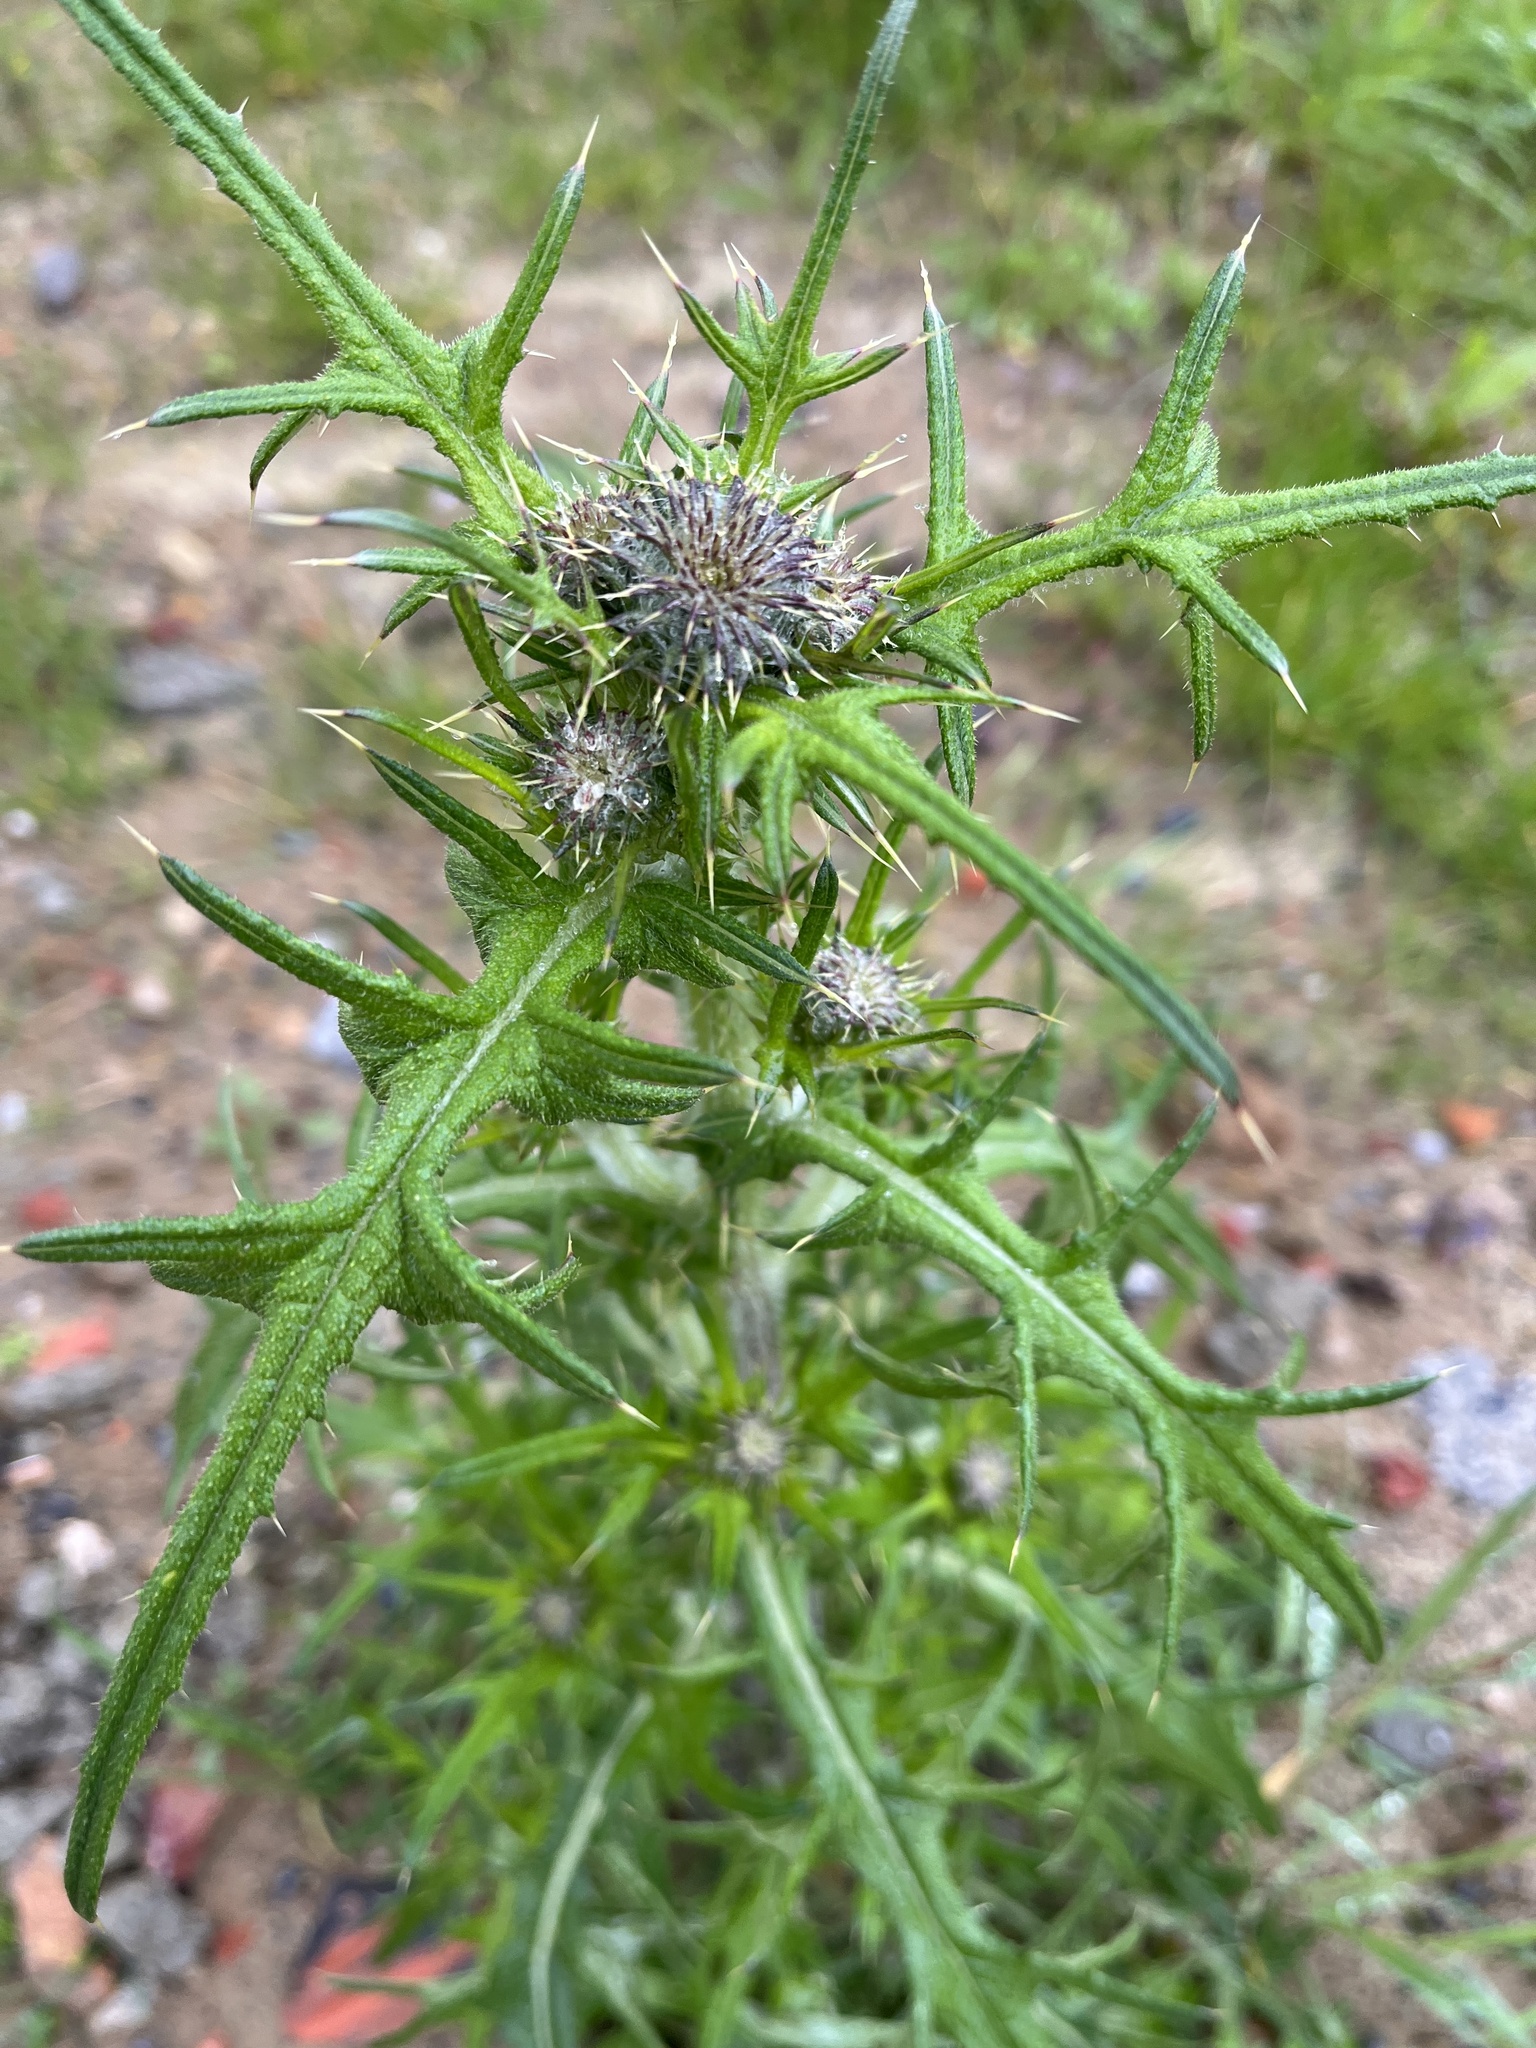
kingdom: Plantae
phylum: Tracheophyta
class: Magnoliopsida
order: Asterales
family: Asteraceae
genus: Cirsium
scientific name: Cirsium vulgare
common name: Bull thistle
